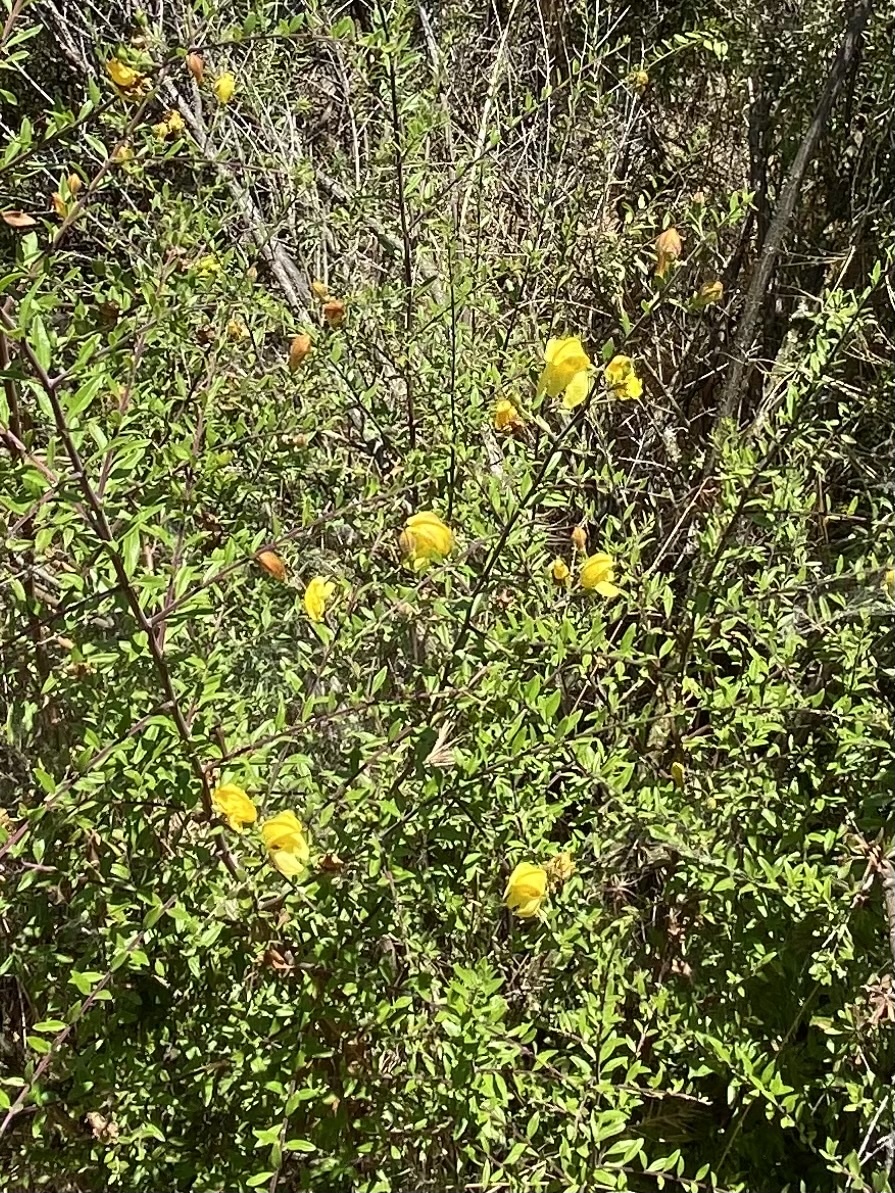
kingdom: Plantae
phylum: Tracheophyta
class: Magnoliopsida
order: Lamiales
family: Plantaginaceae
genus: Keckiella
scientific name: Keckiella antirrhinoides
